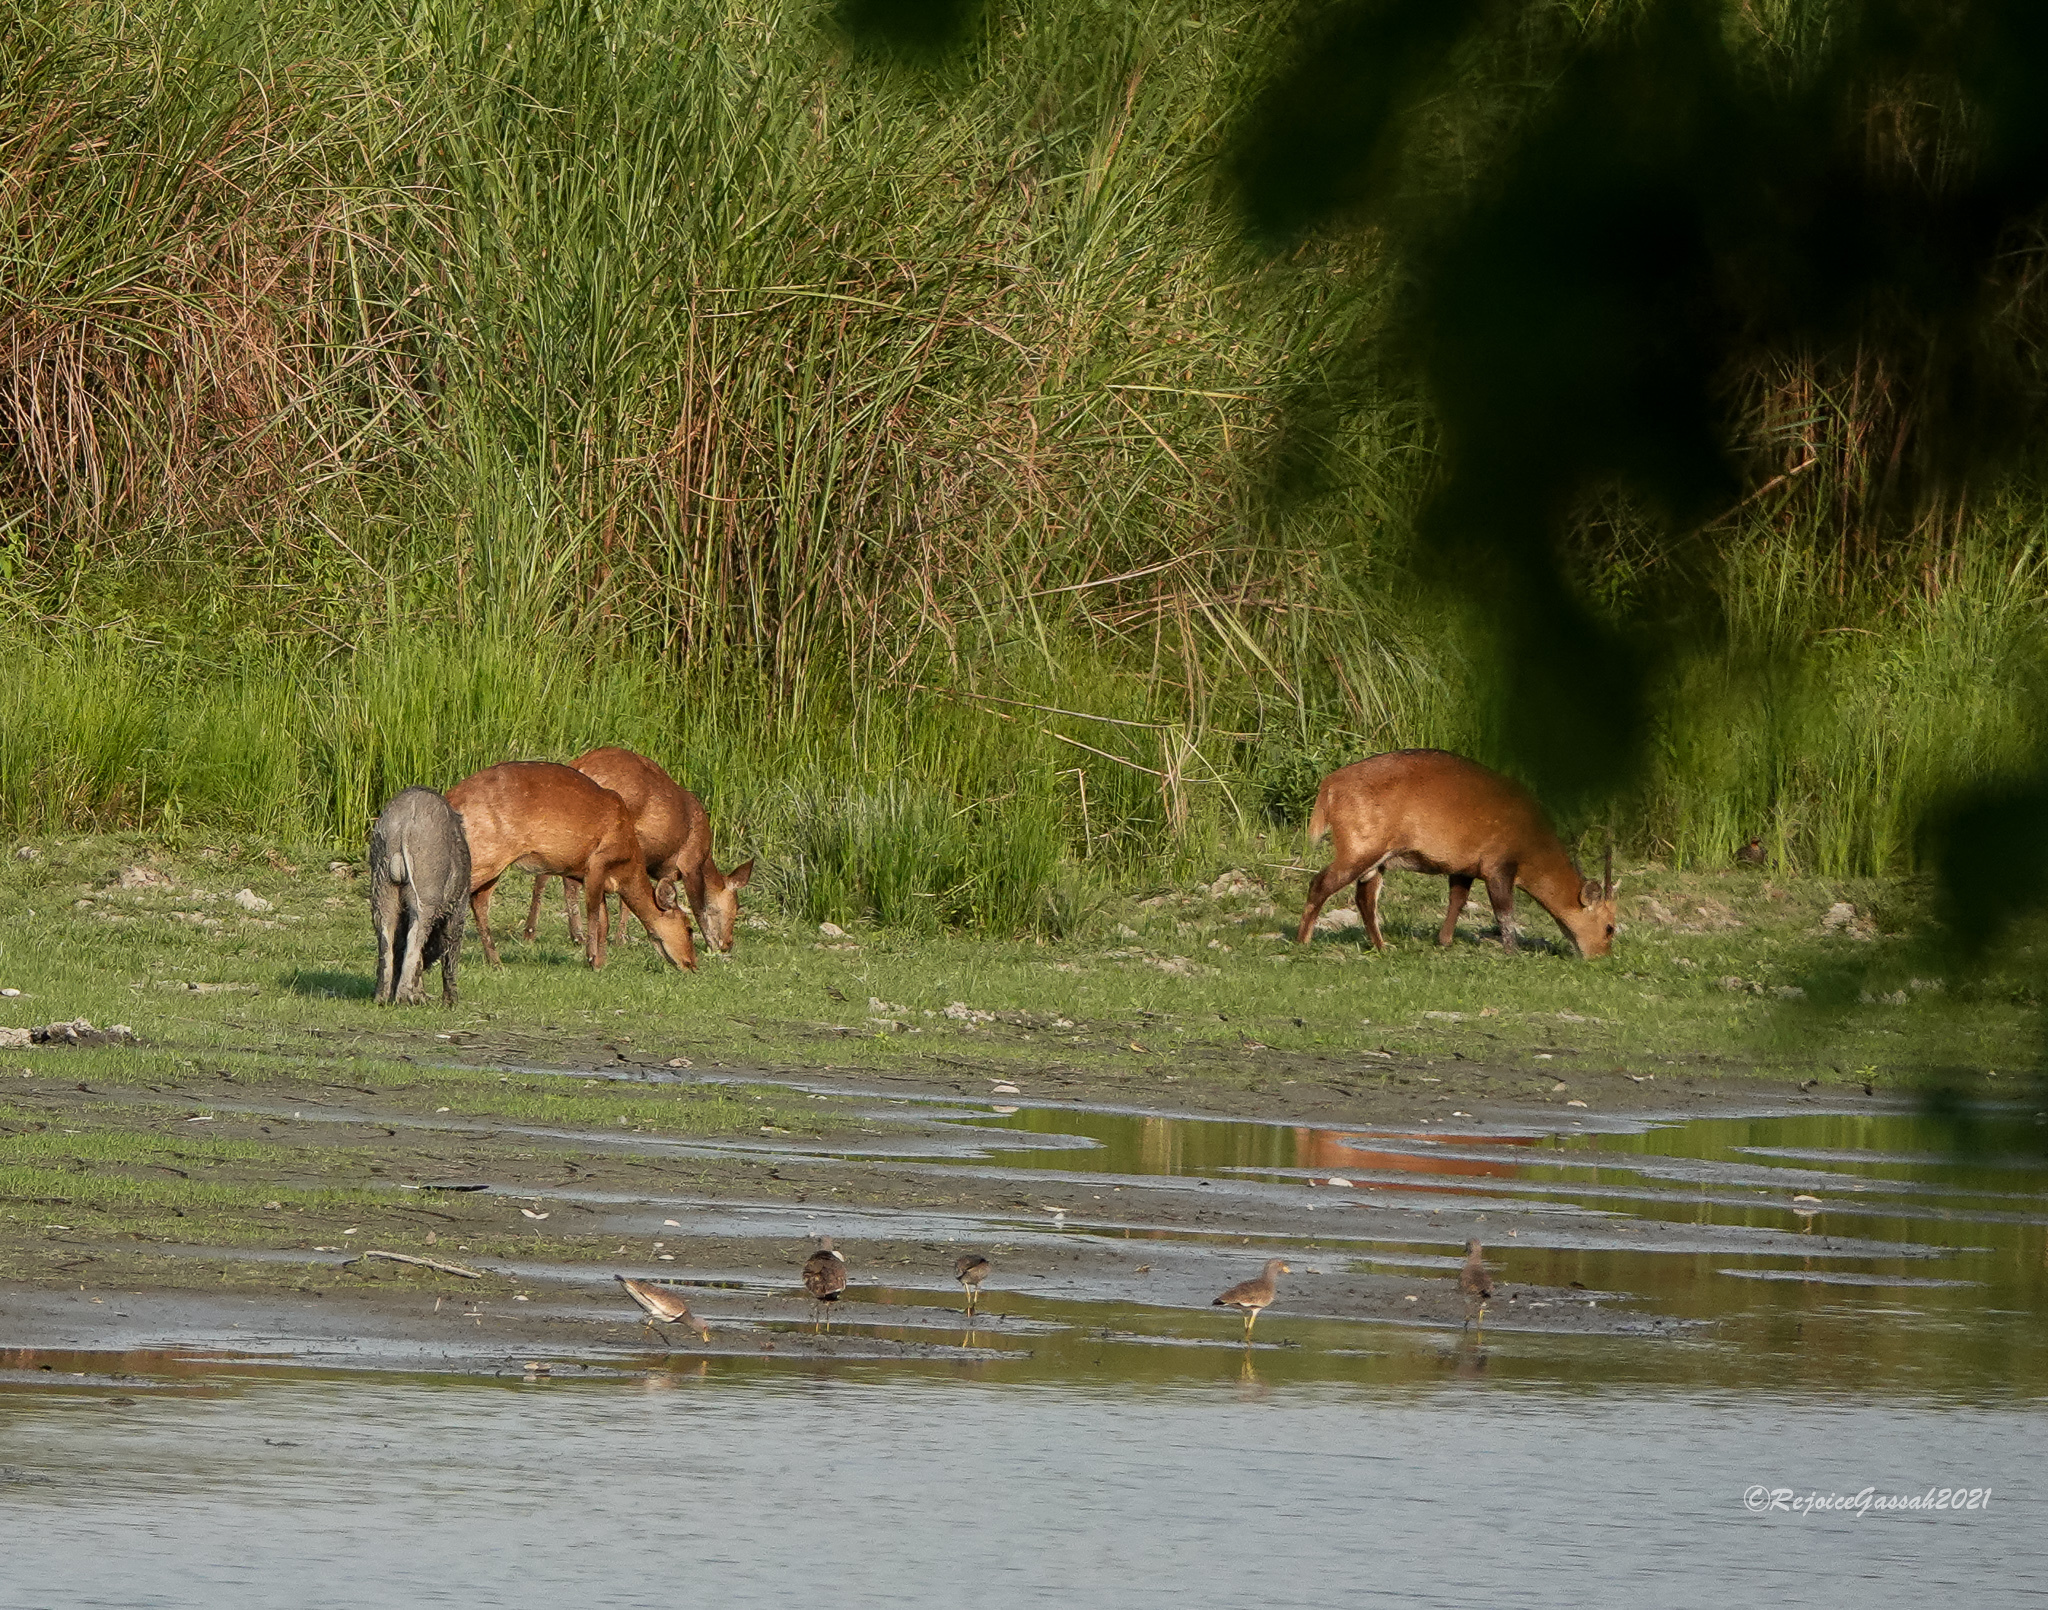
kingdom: Animalia
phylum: Chordata
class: Mammalia
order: Artiodactyla
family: Cervidae
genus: Axis
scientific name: Axis porcinus
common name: Hog deer
